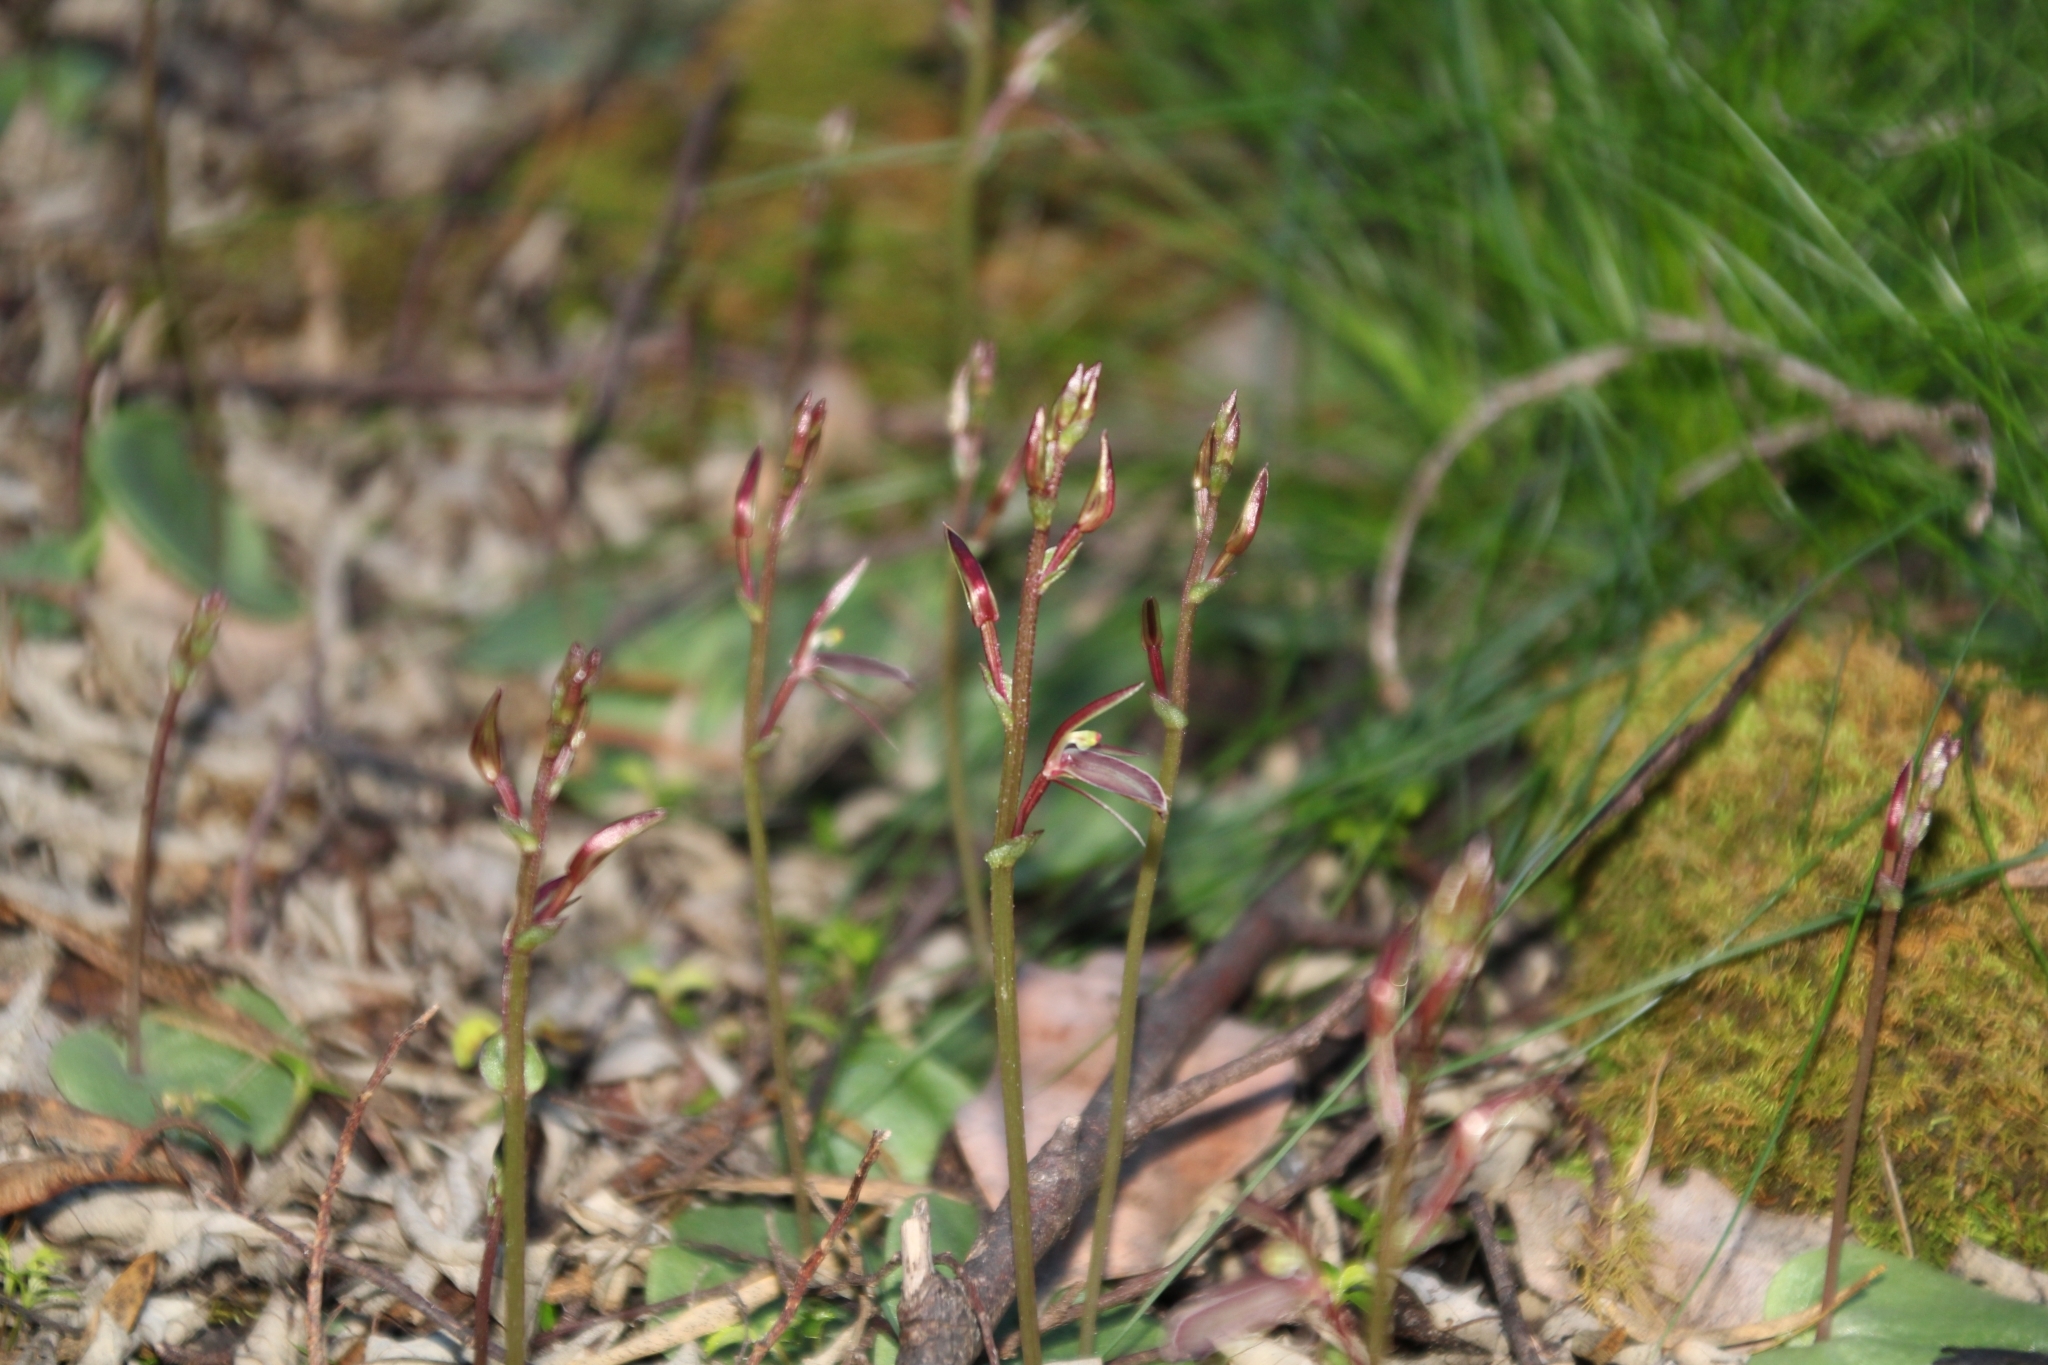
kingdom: Plantae
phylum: Tracheophyta
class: Liliopsida
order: Asparagales
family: Orchidaceae
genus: Cyrtostylis
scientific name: Cyrtostylis robusta
